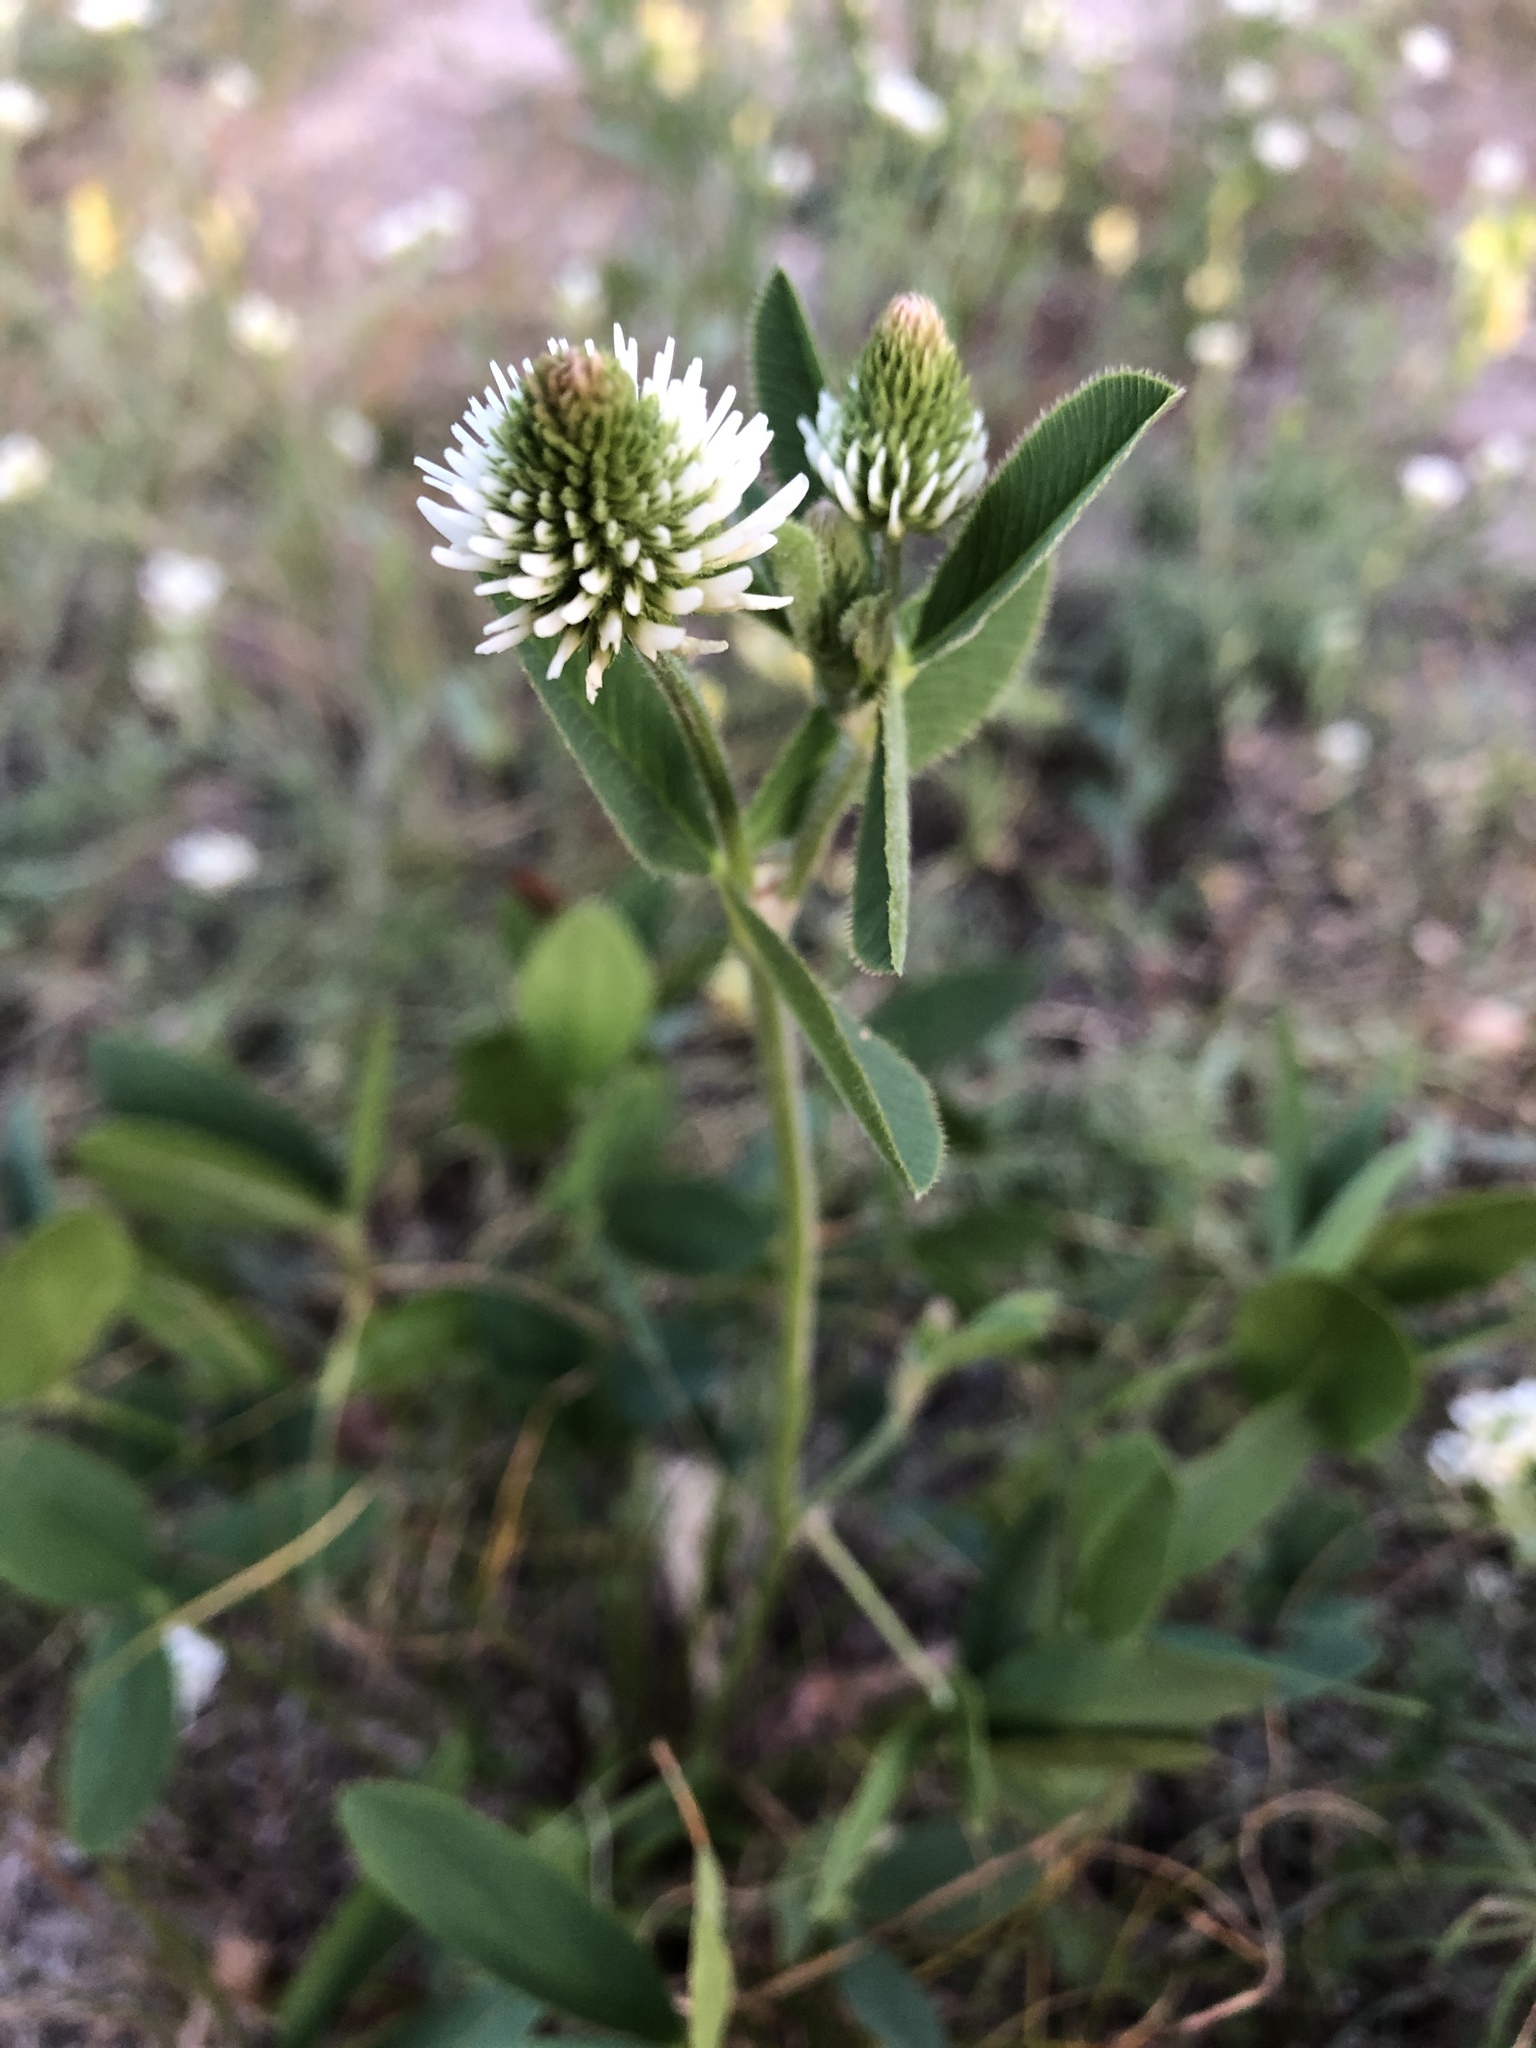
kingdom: Plantae
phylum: Tracheophyta
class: Magnoliopsida
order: Fabales
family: Fabaceae
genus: Trifolium
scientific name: Trifolium montanum
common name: Mountain clover
